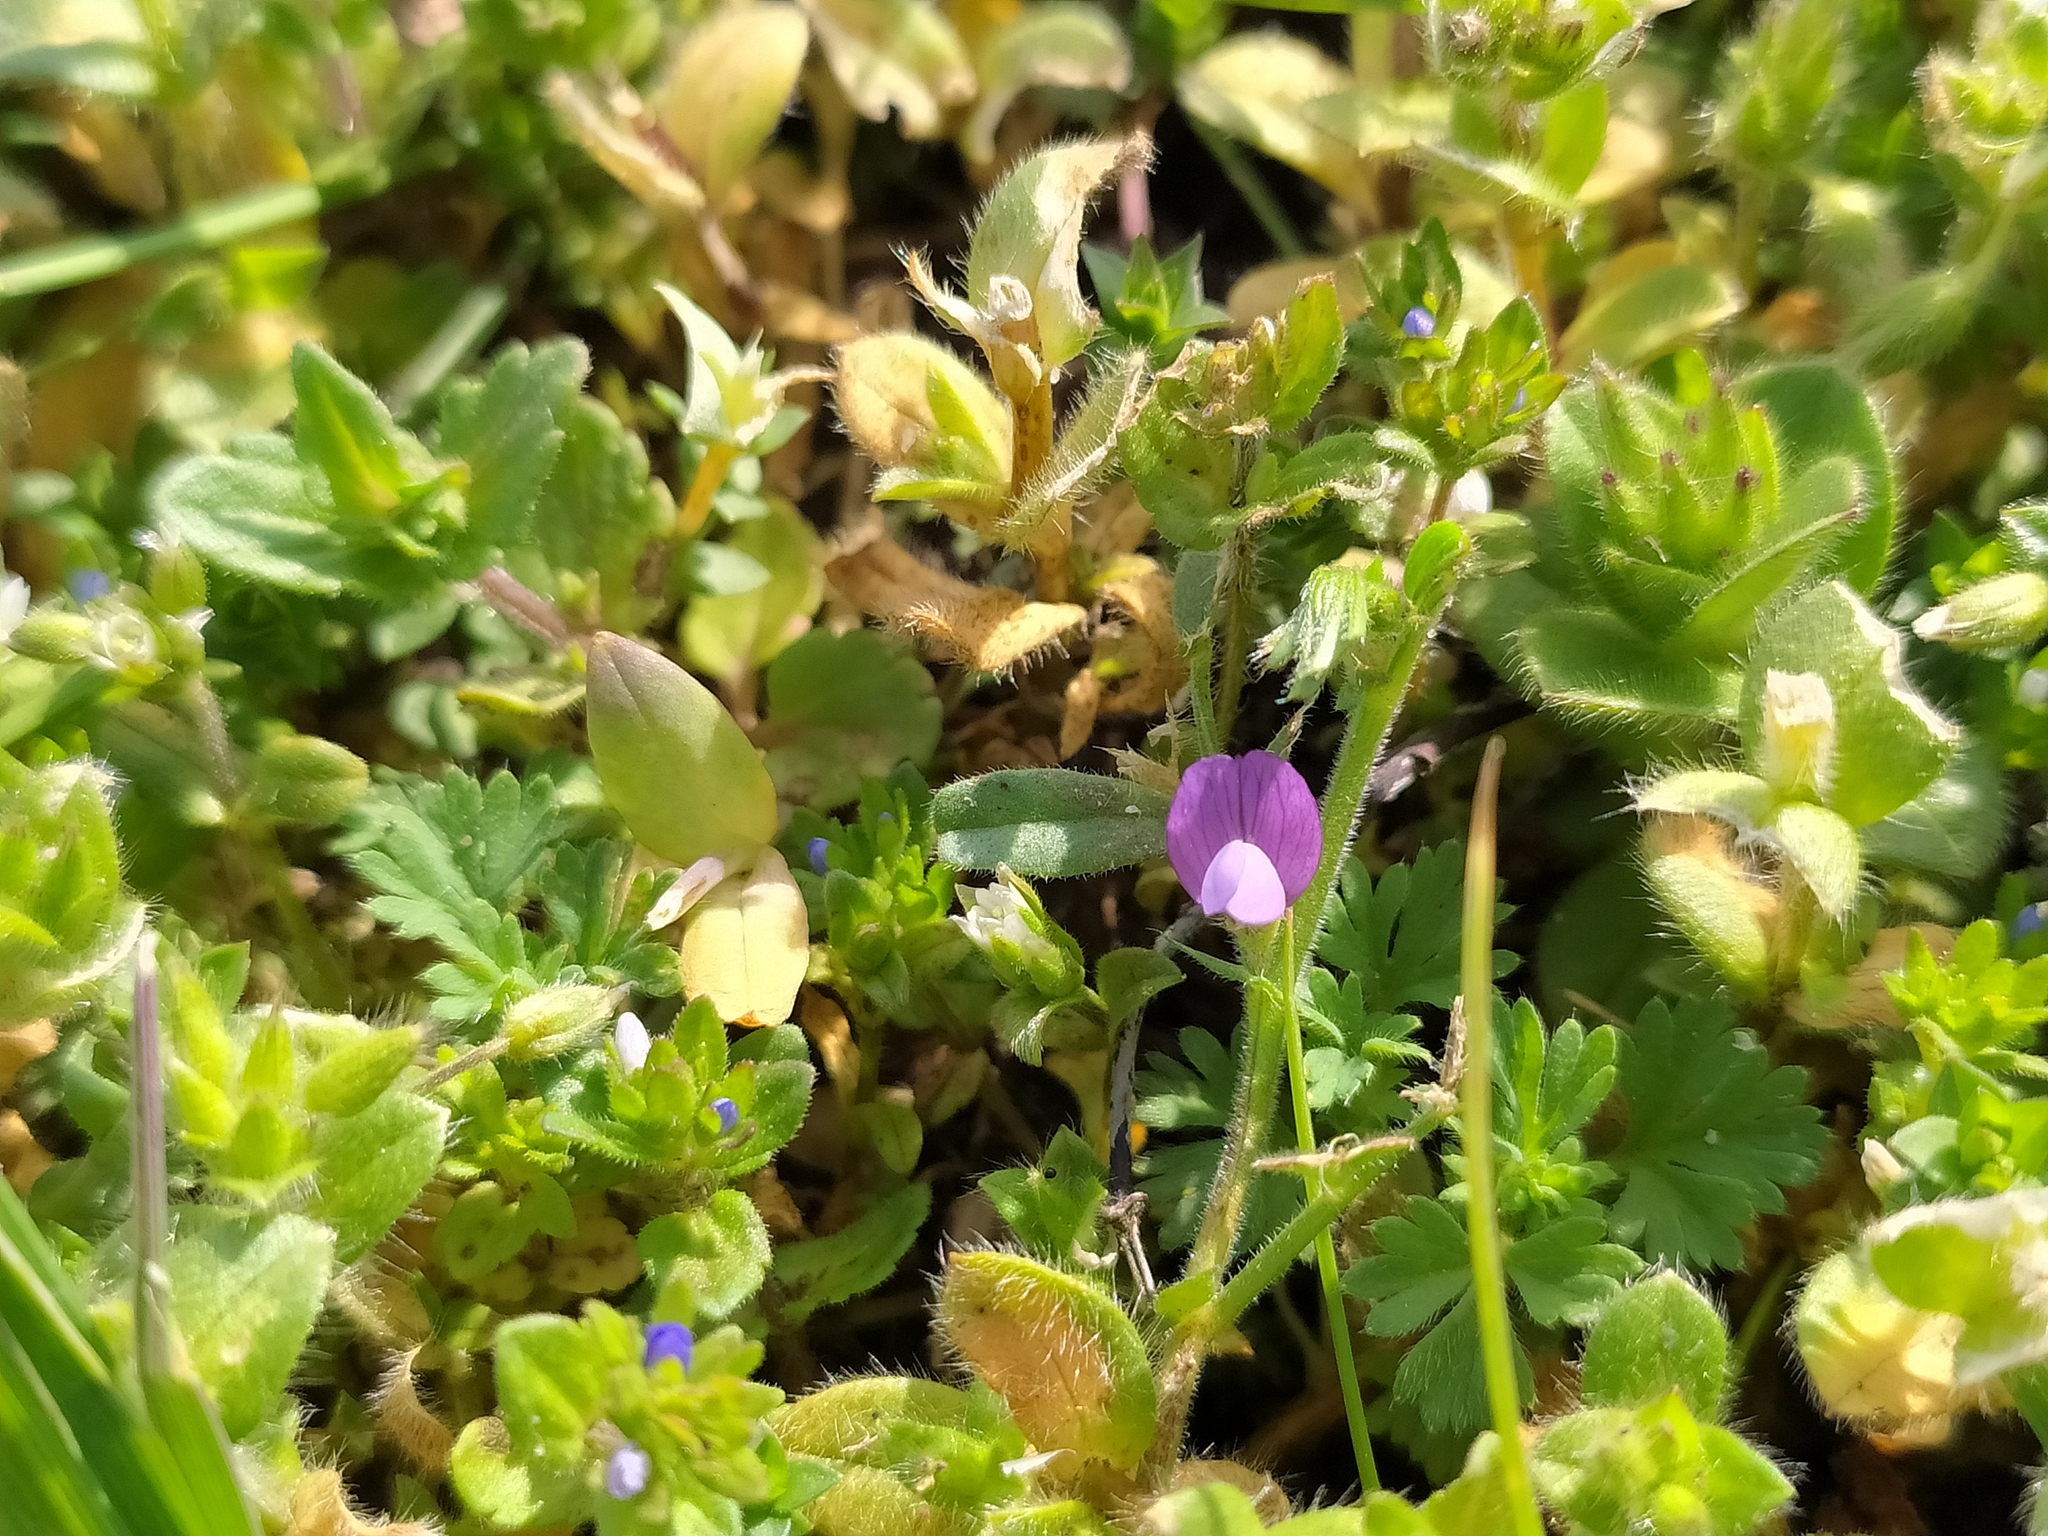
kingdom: Plantae
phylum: Tracheophyta
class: Magnoliopsida
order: Fabales
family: Fabaceae
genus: Vicia
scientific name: Vicia lathyroides
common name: Spring vetch
